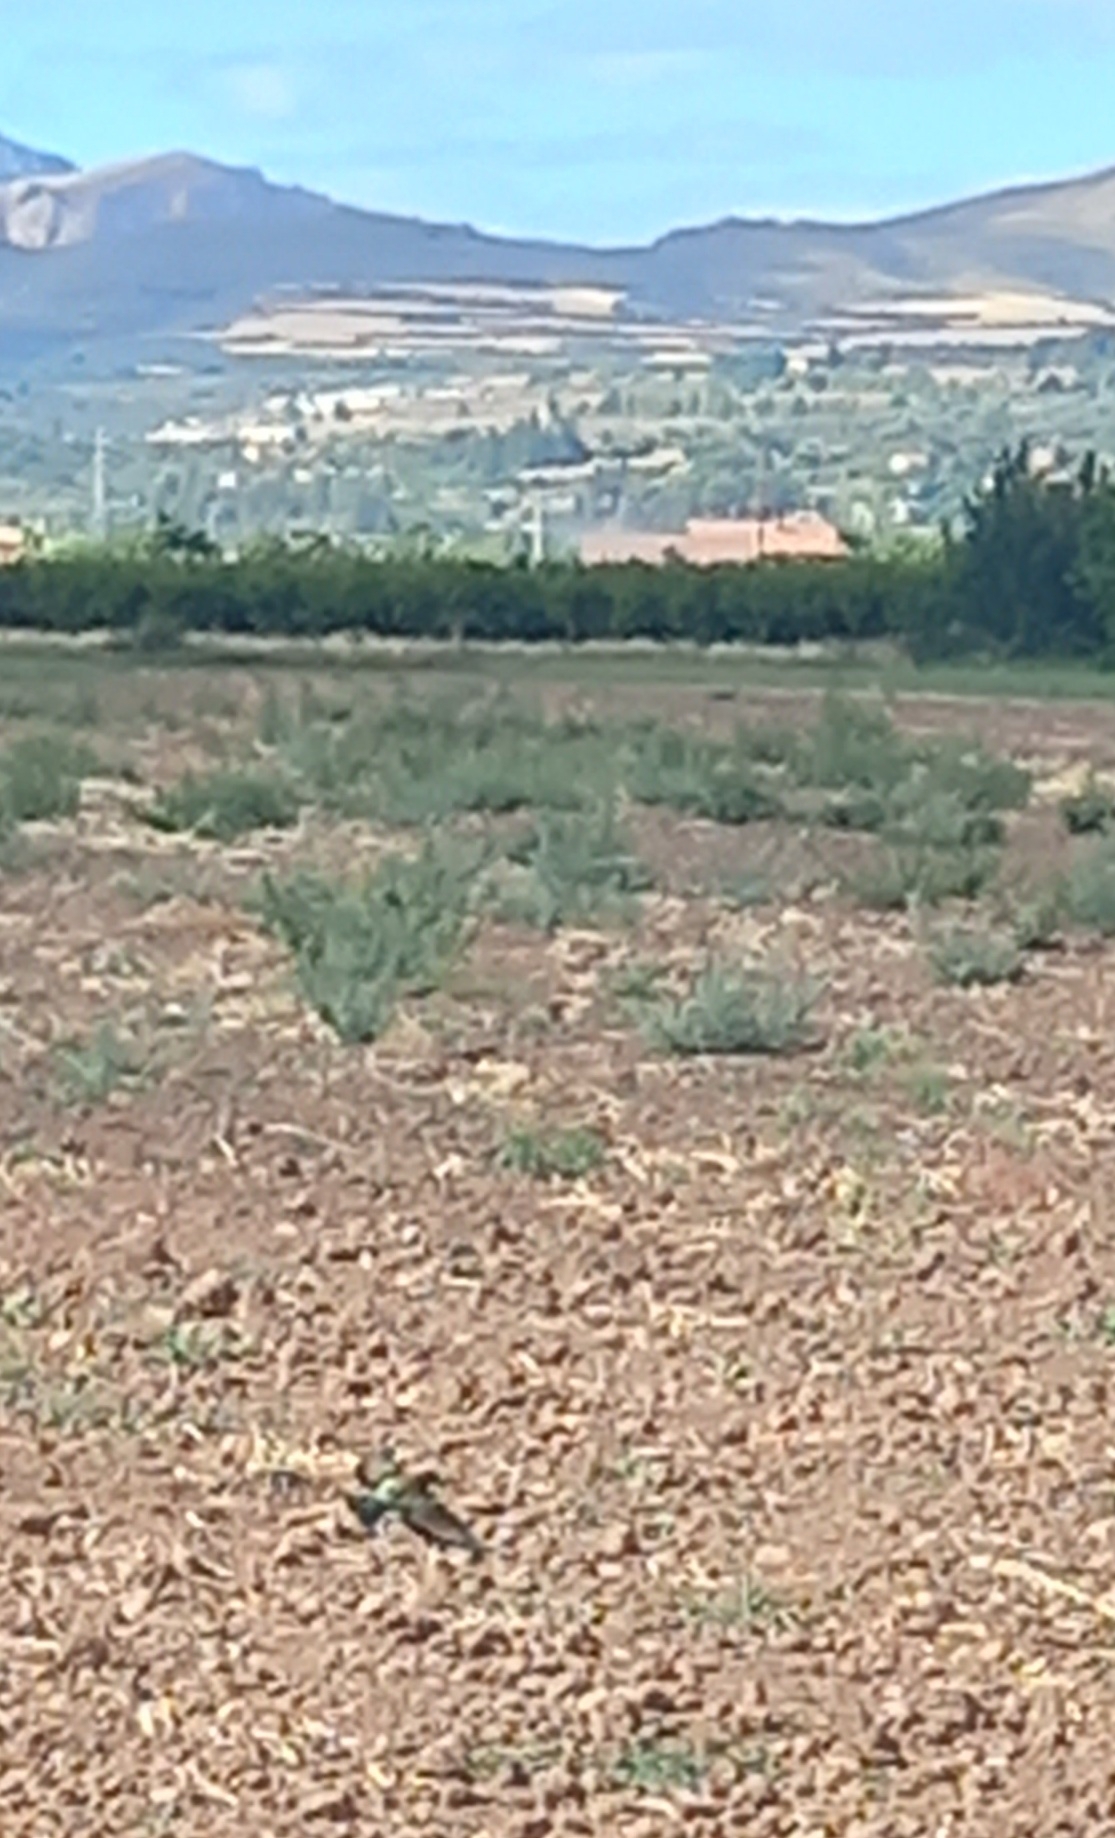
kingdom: Animalia
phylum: Chordata
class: Aves
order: Coraciiformes
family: Meropidae
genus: Merops
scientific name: Merops apiaster
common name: European bee-eater
